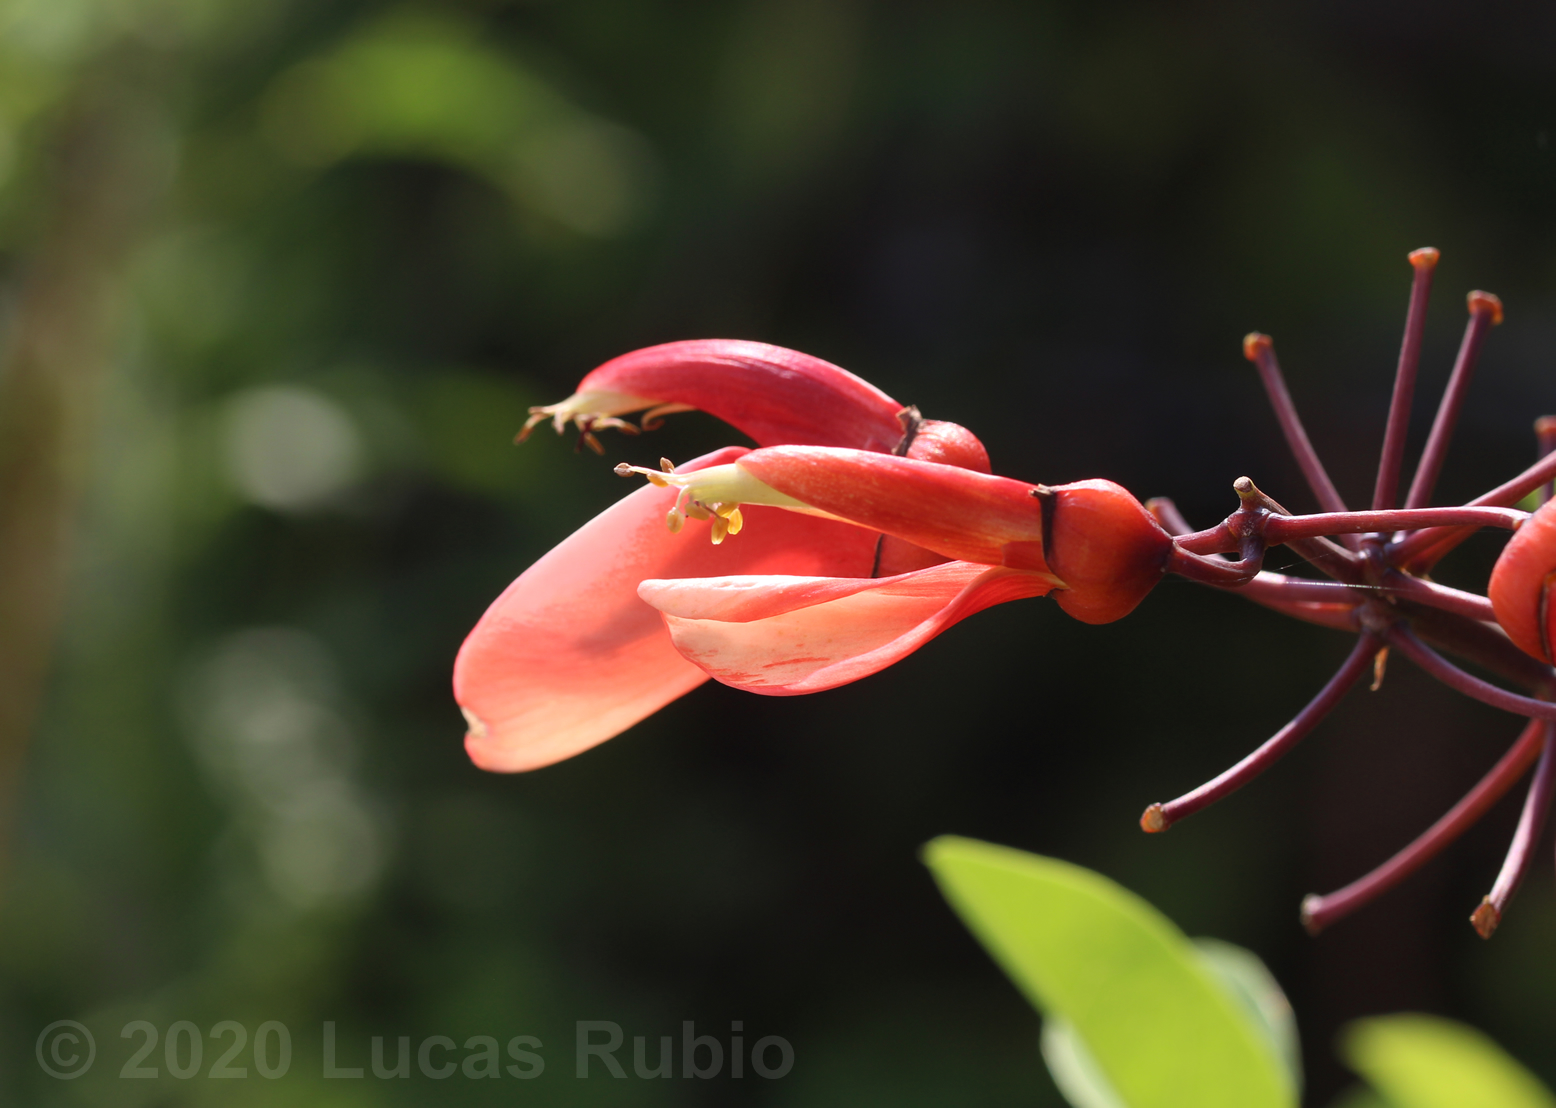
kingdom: Plantae
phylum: Tracheophyta
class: Magnoliopsida
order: Fabales
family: Fabaceae
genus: Erythrina
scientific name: Erythrina crista-galli
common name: Cockspur coral tree
